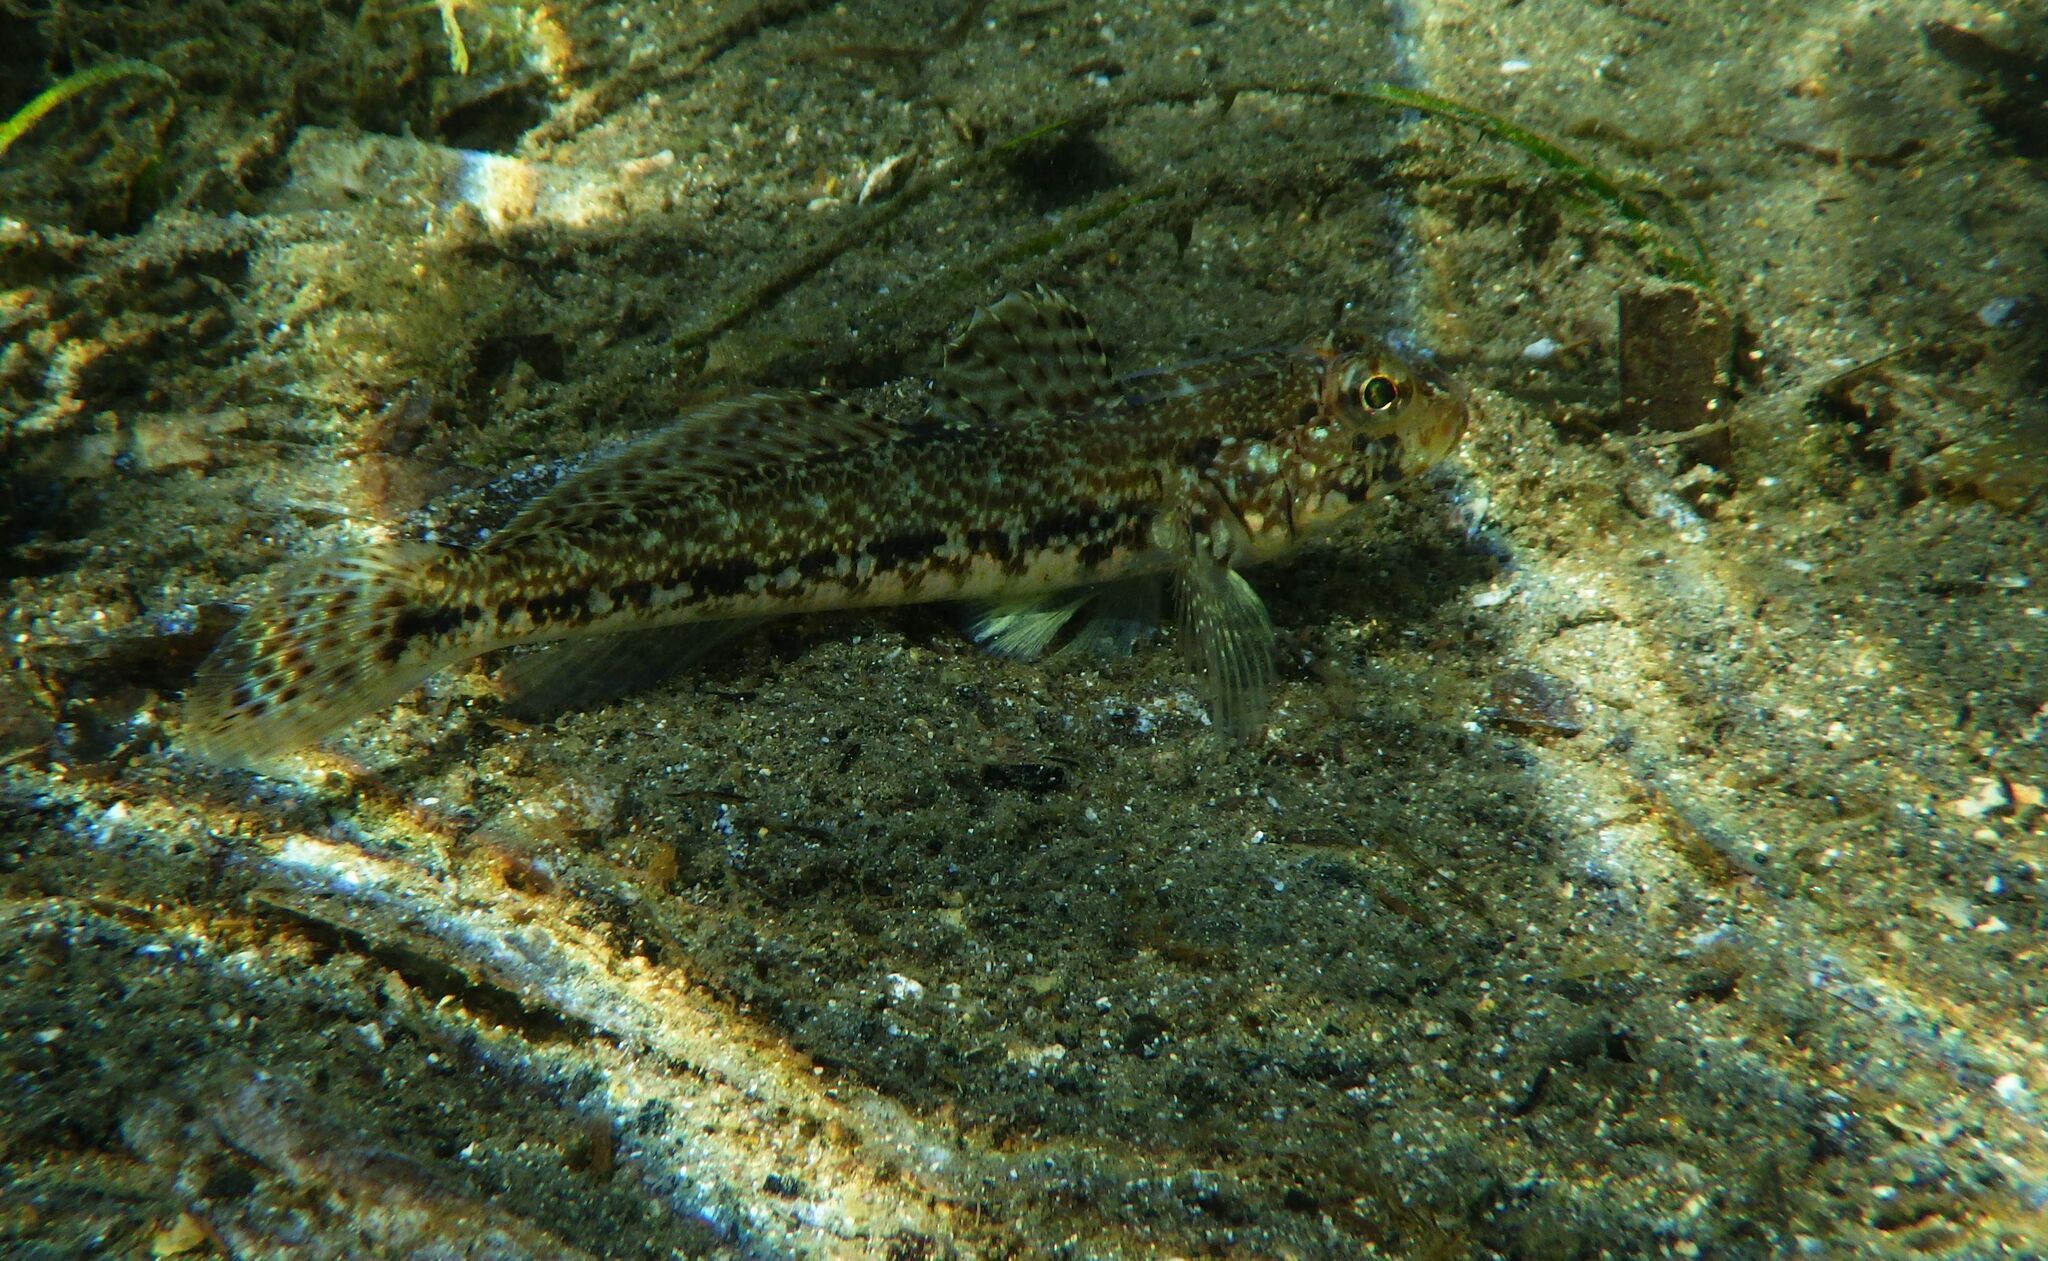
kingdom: Animalia
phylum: Chordata
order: Perciformes
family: Gobiidae
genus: Gobius
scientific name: Gobius geniporus
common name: Slender goby
